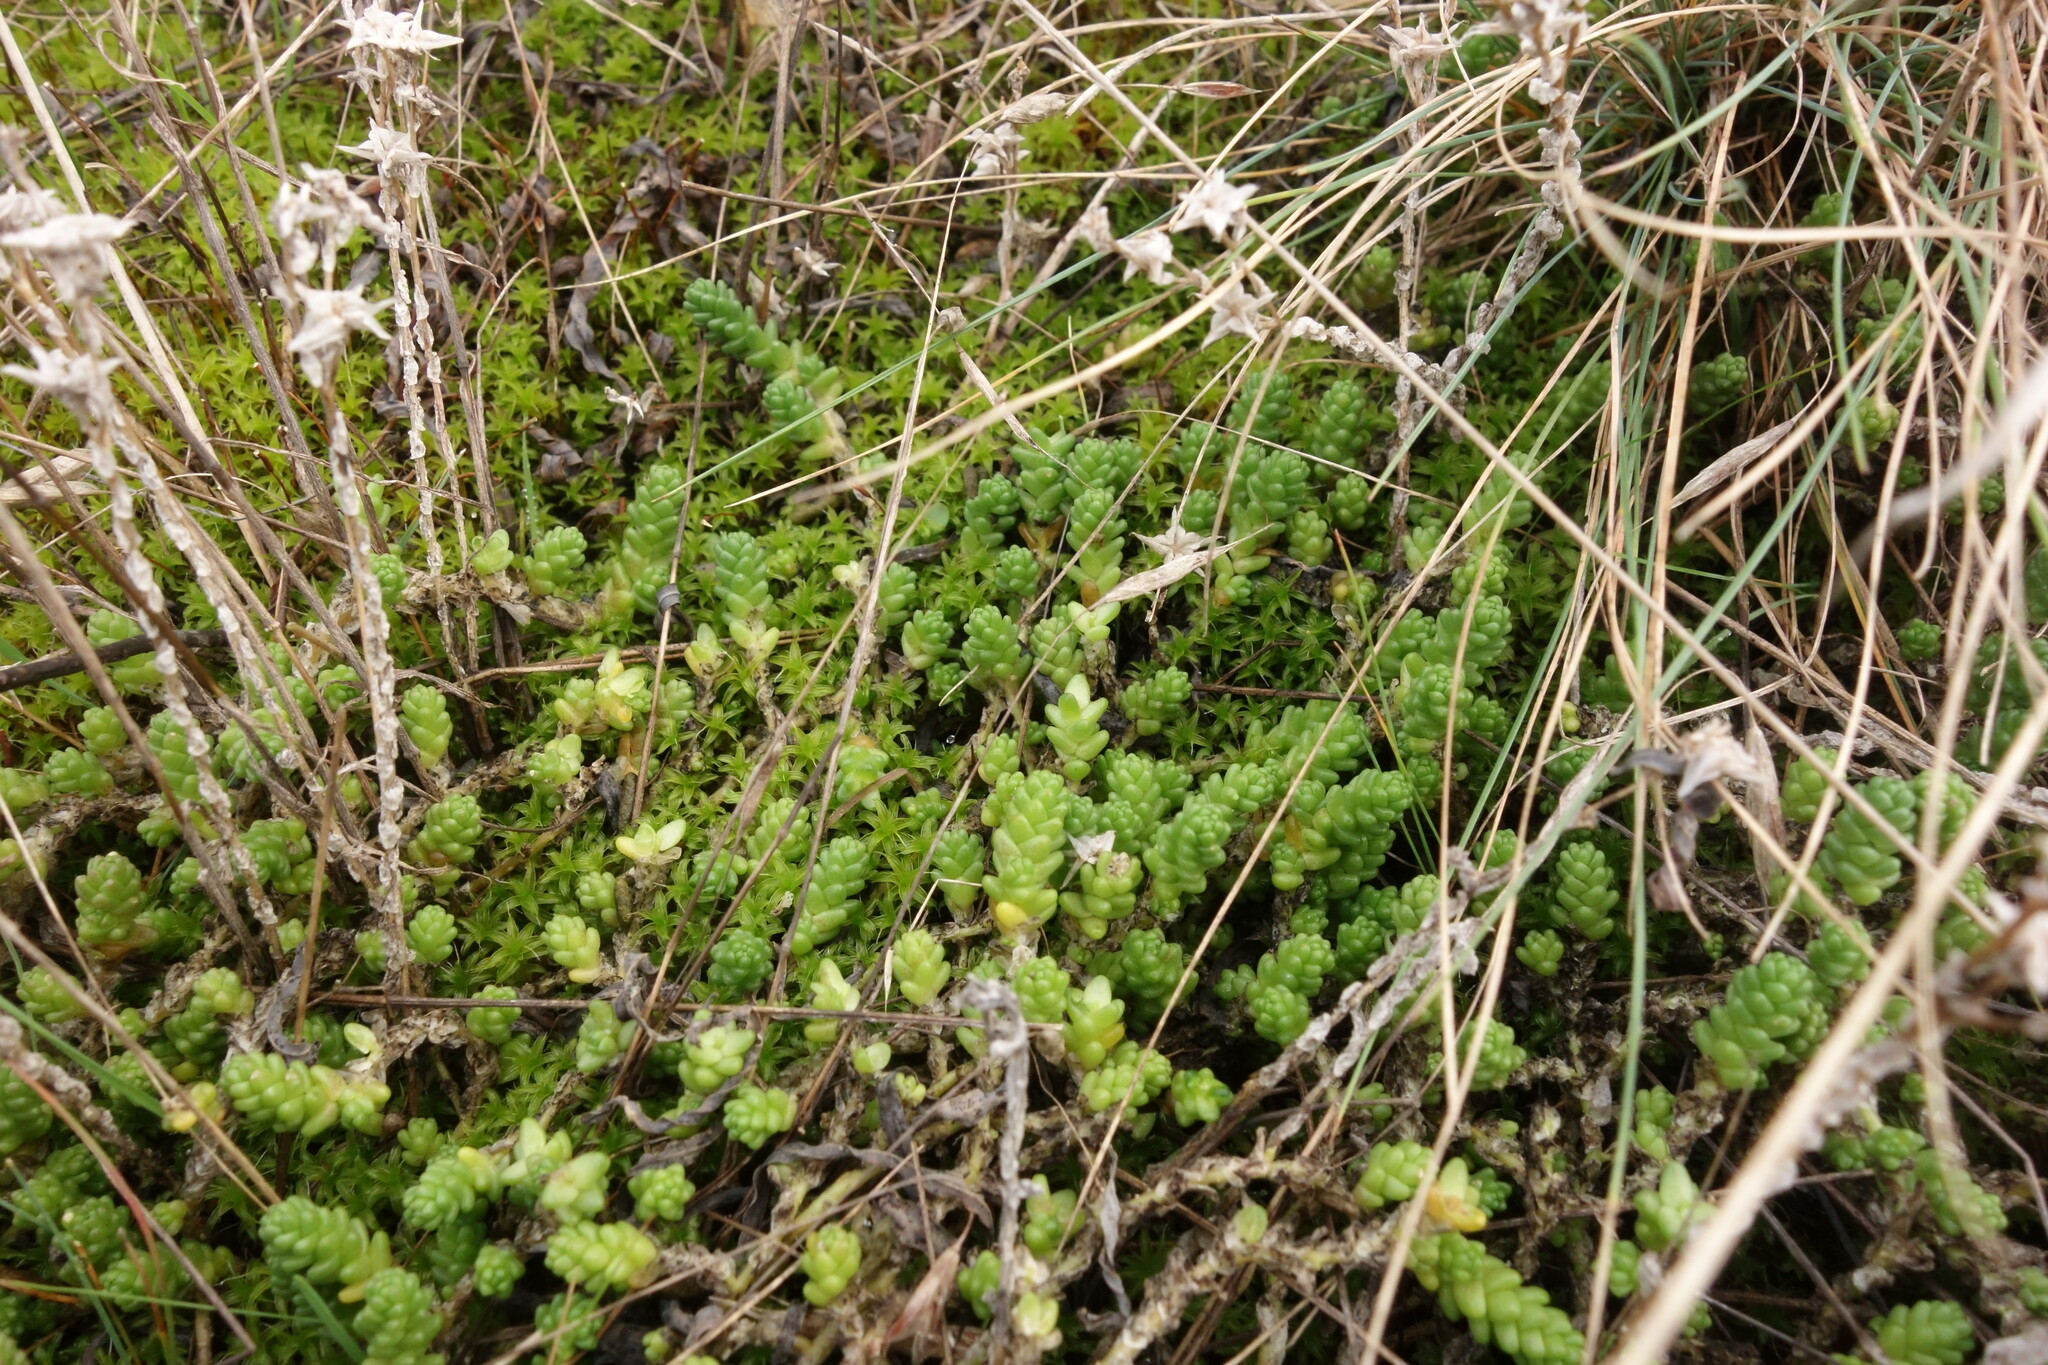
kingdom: Plantae
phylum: Tracheophyta
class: Magnoliopsida
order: Saxifragales
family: Crassulaceae
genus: Sedum
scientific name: Sedum acre
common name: Biting stonecrop
